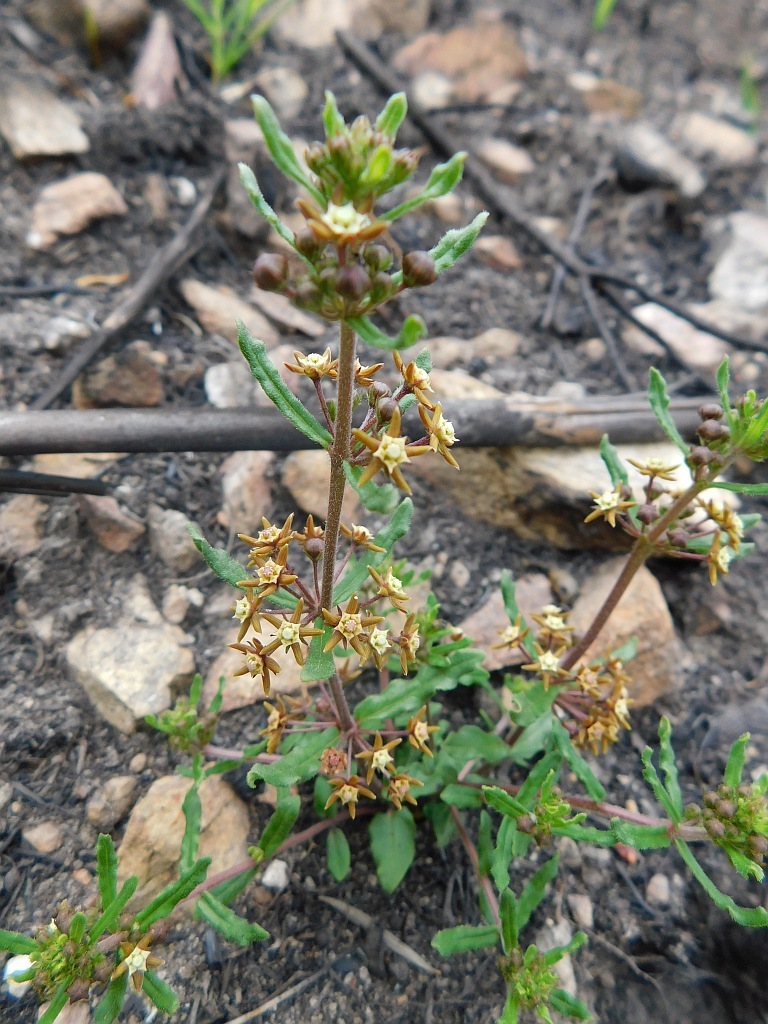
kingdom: Plantae
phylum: Tracheophyta
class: Magnoliopsida
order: Gentianales
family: Apocynaceae
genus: Aspidoglossum
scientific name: Aspidoglossum heterophyllum
